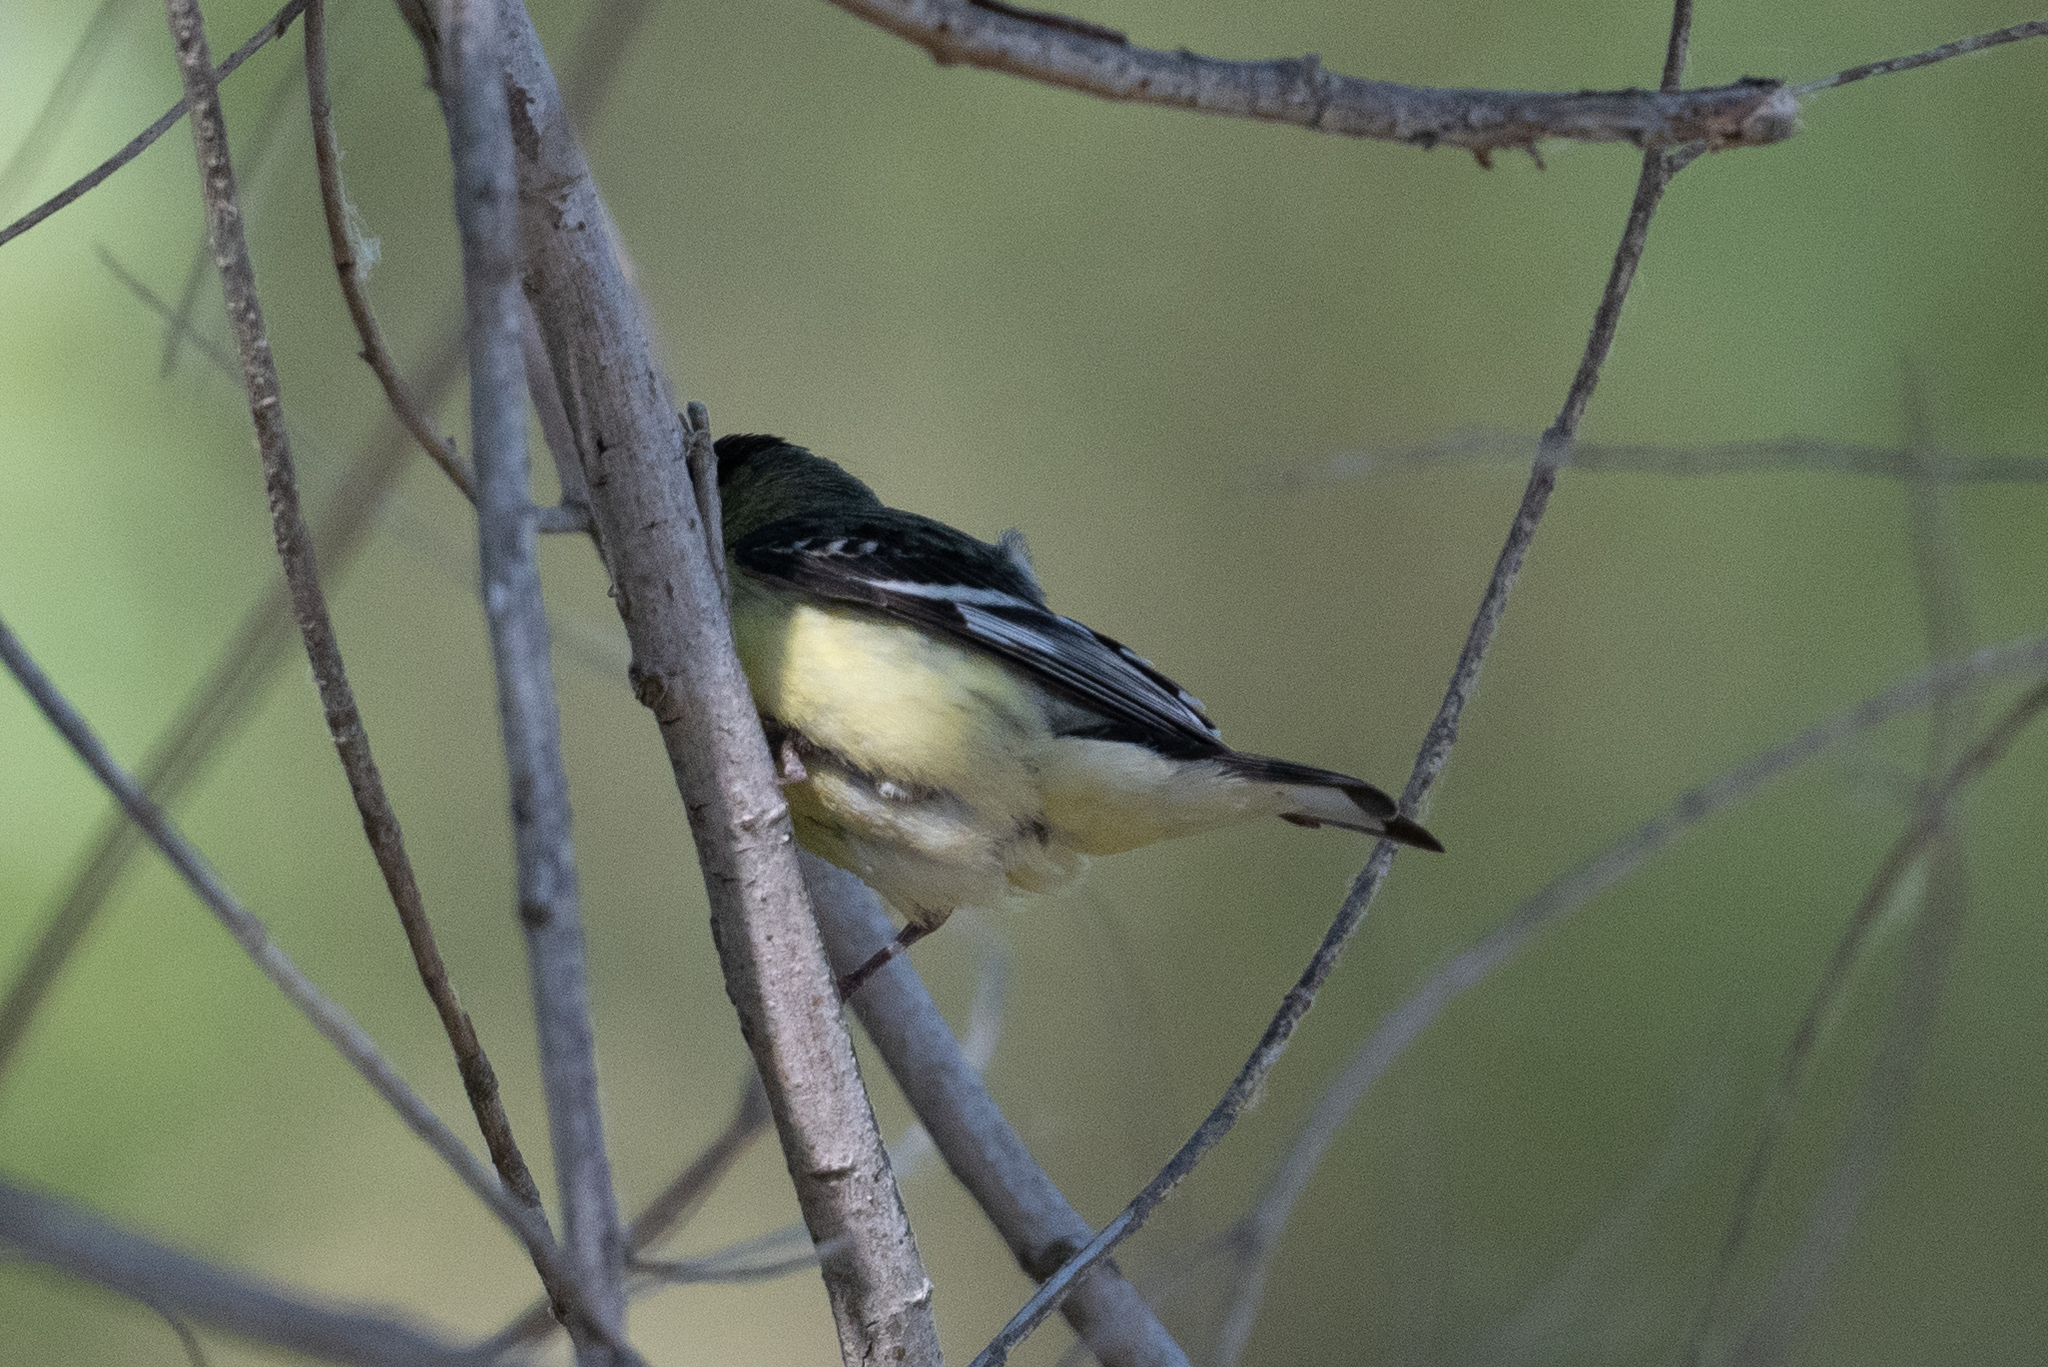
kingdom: Animalia
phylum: Chordata
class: Aves
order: Passeriformes
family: Fringillidae
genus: Spinus
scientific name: Spinus psaltria
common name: Lesser goldfinch
